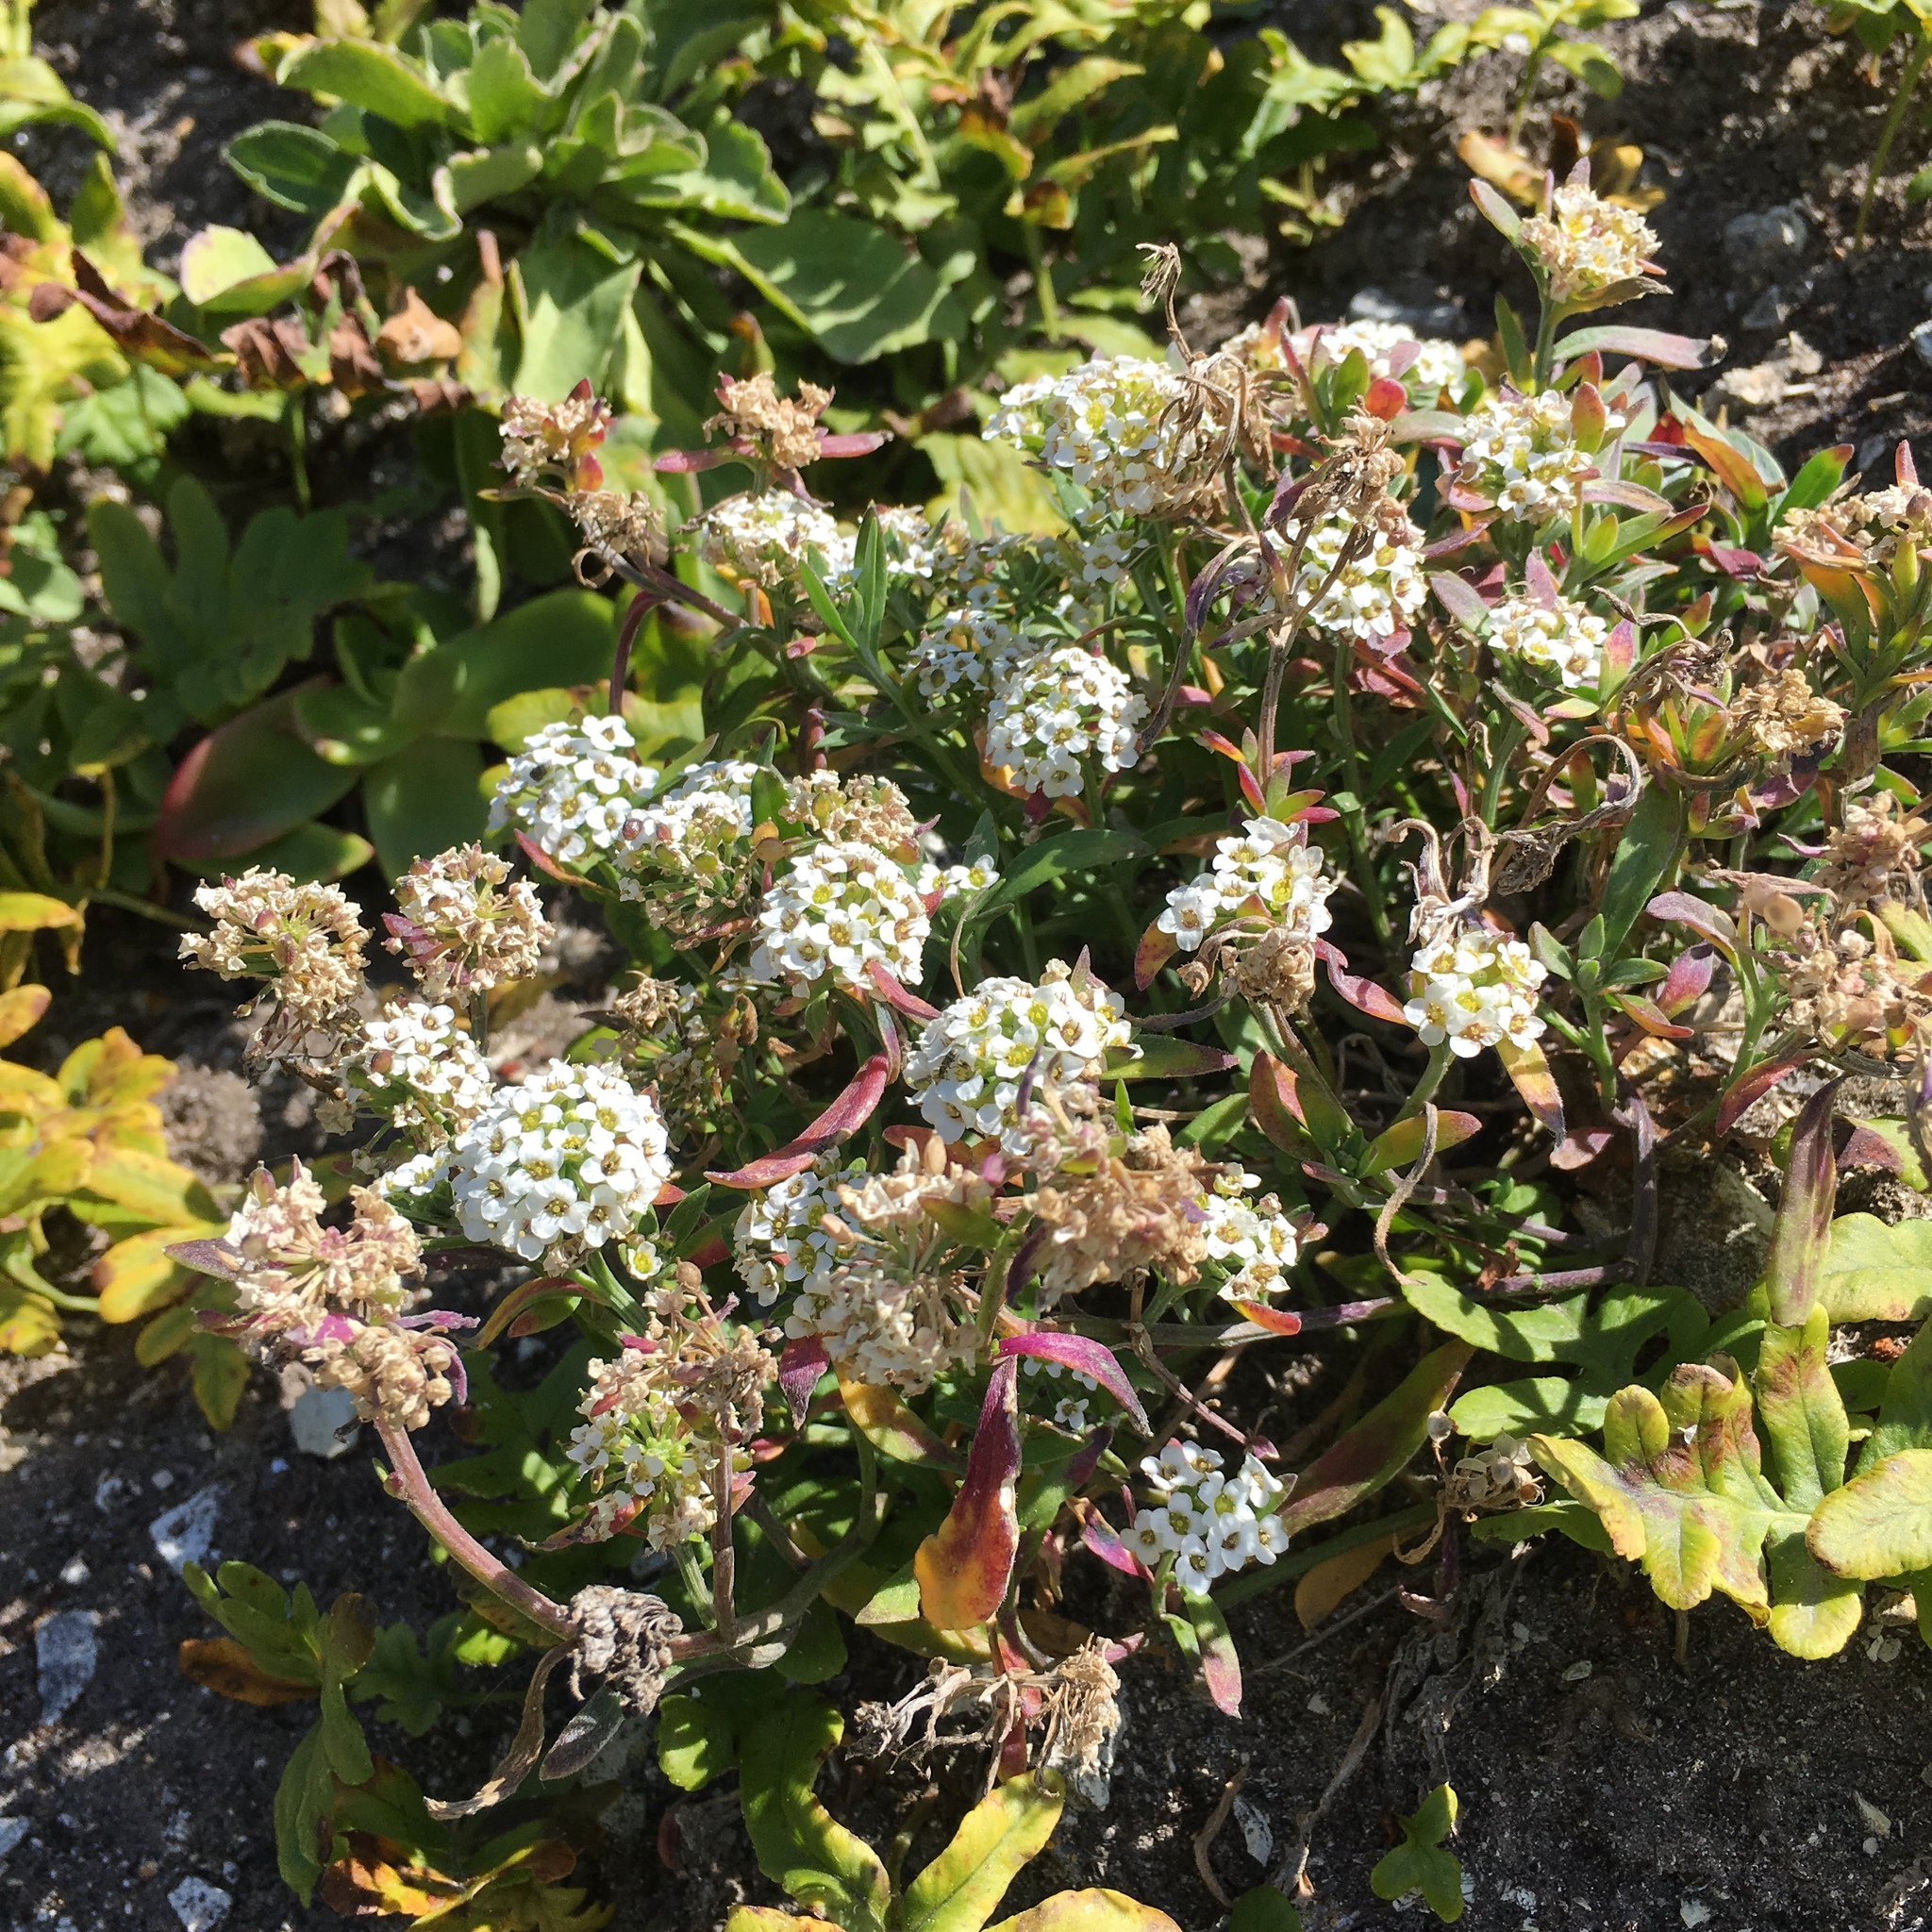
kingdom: Plantae
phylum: Tracheophyta
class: Magnoliopsida
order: Brassicales
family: Brassicaceae
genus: Lobularia
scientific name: Lobularia maritima
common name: Sweet alison
